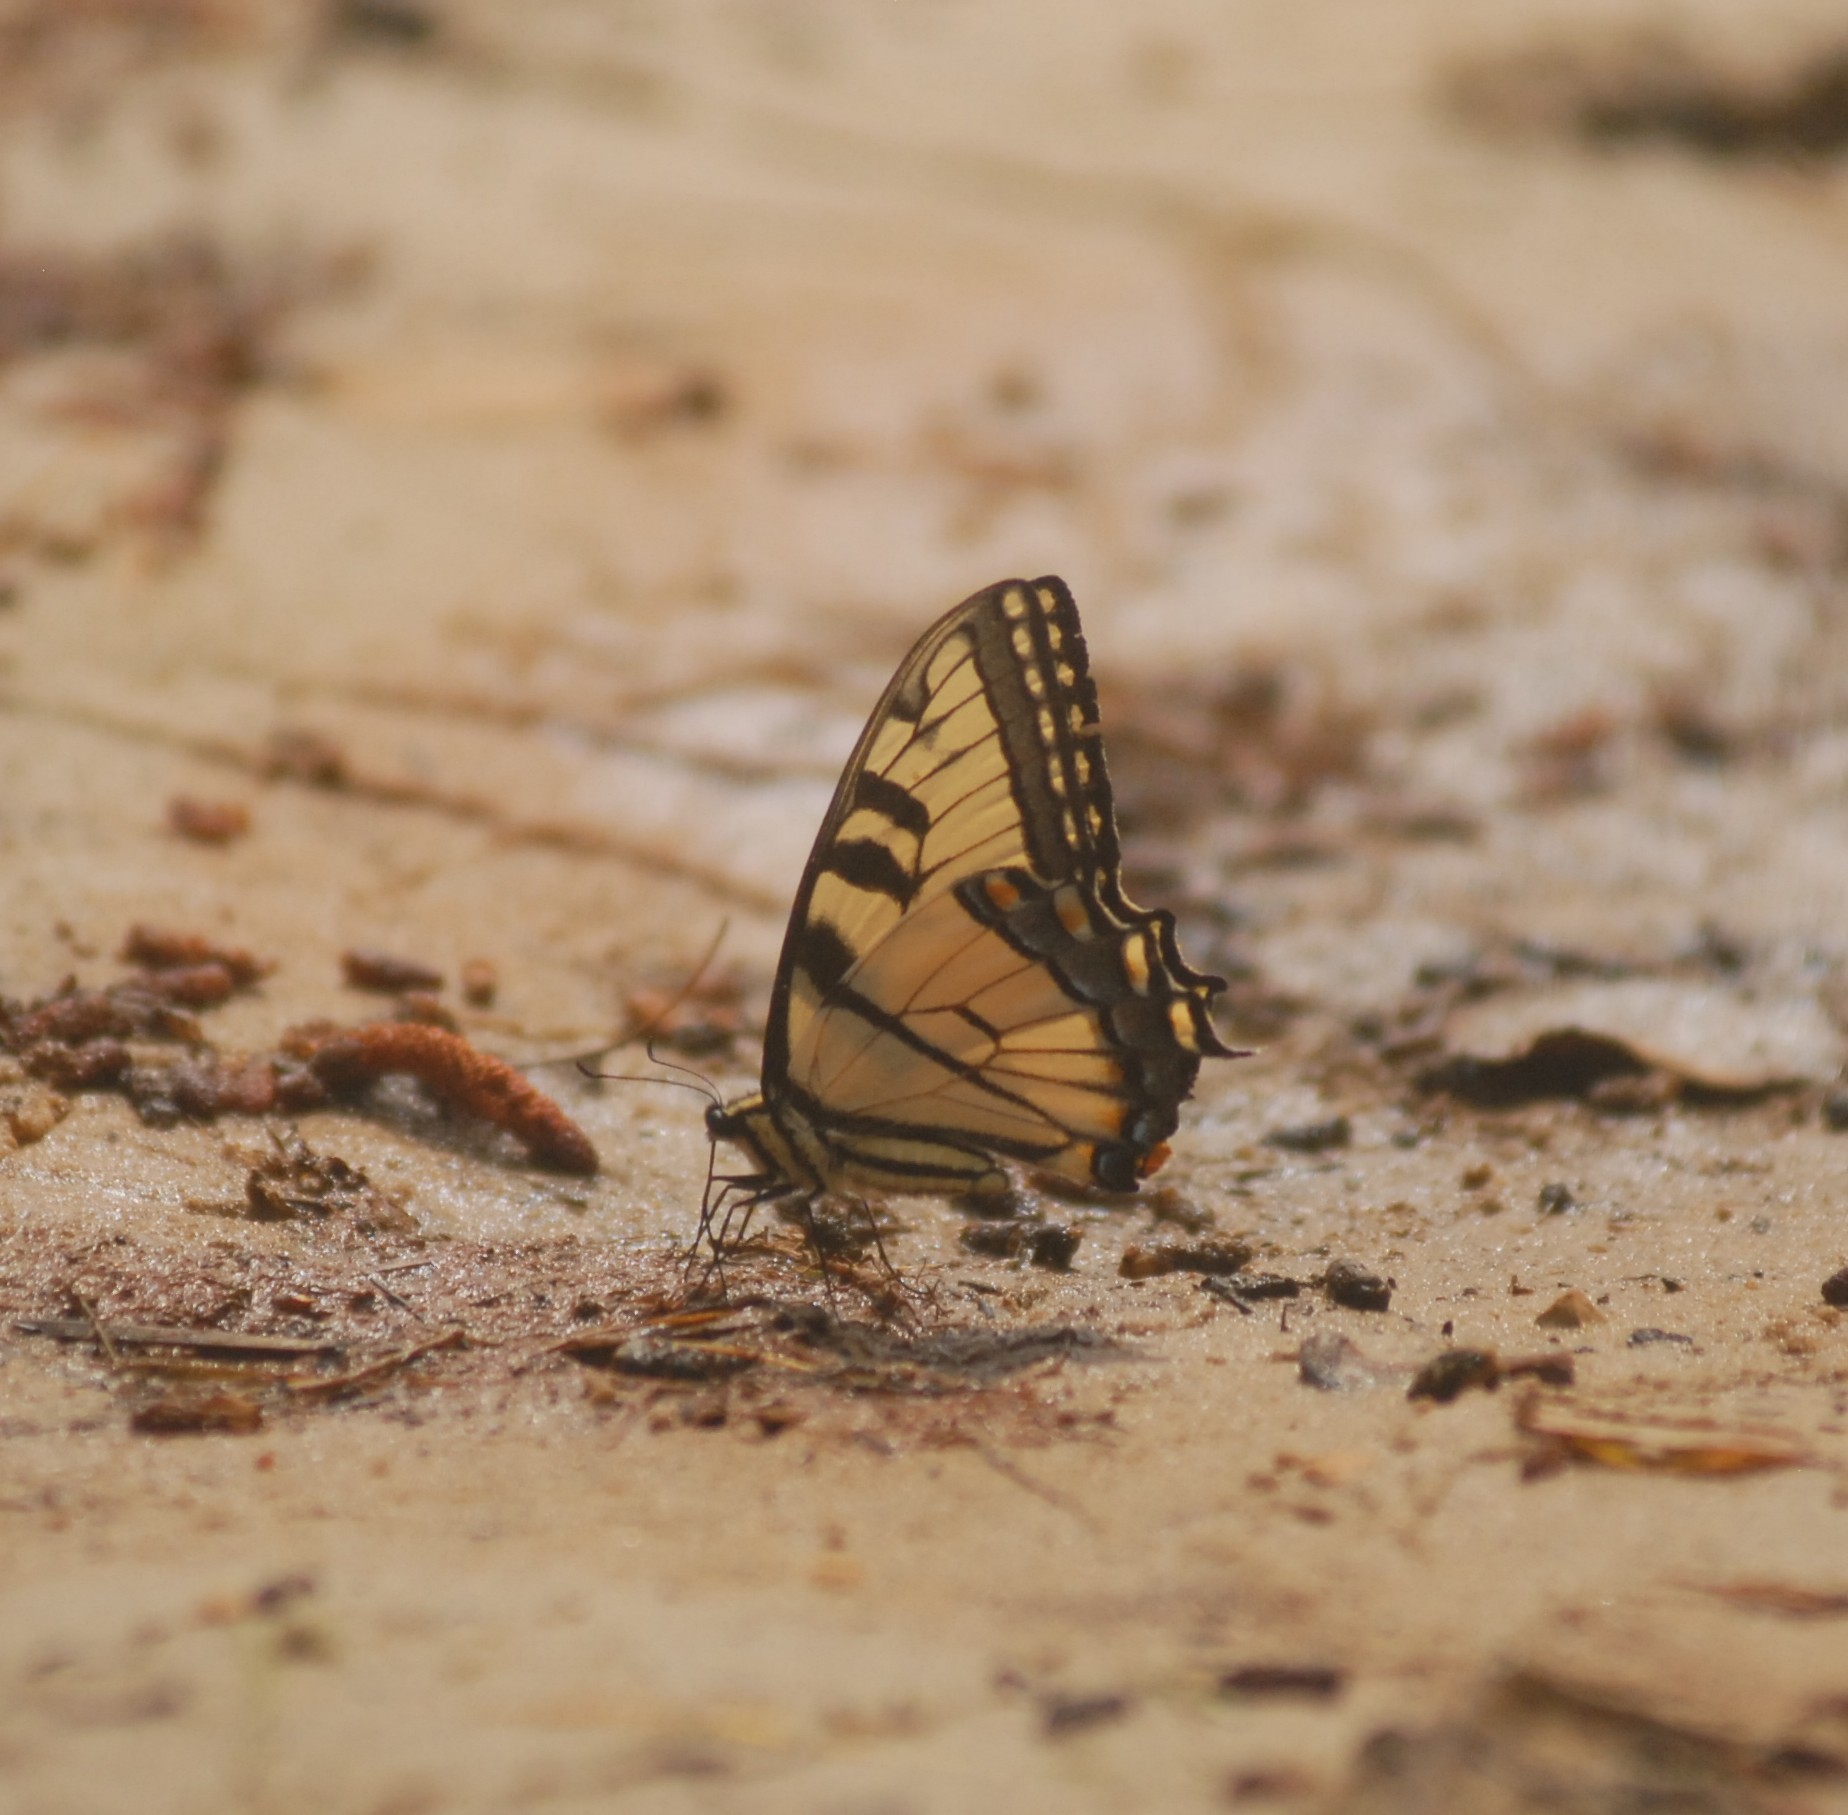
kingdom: Animalia
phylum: Arthropoda
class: Insecta
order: Lepidoptera
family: Papilionidae
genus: Papilio
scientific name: Papilio glaucus
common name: Tiger swallowtail
